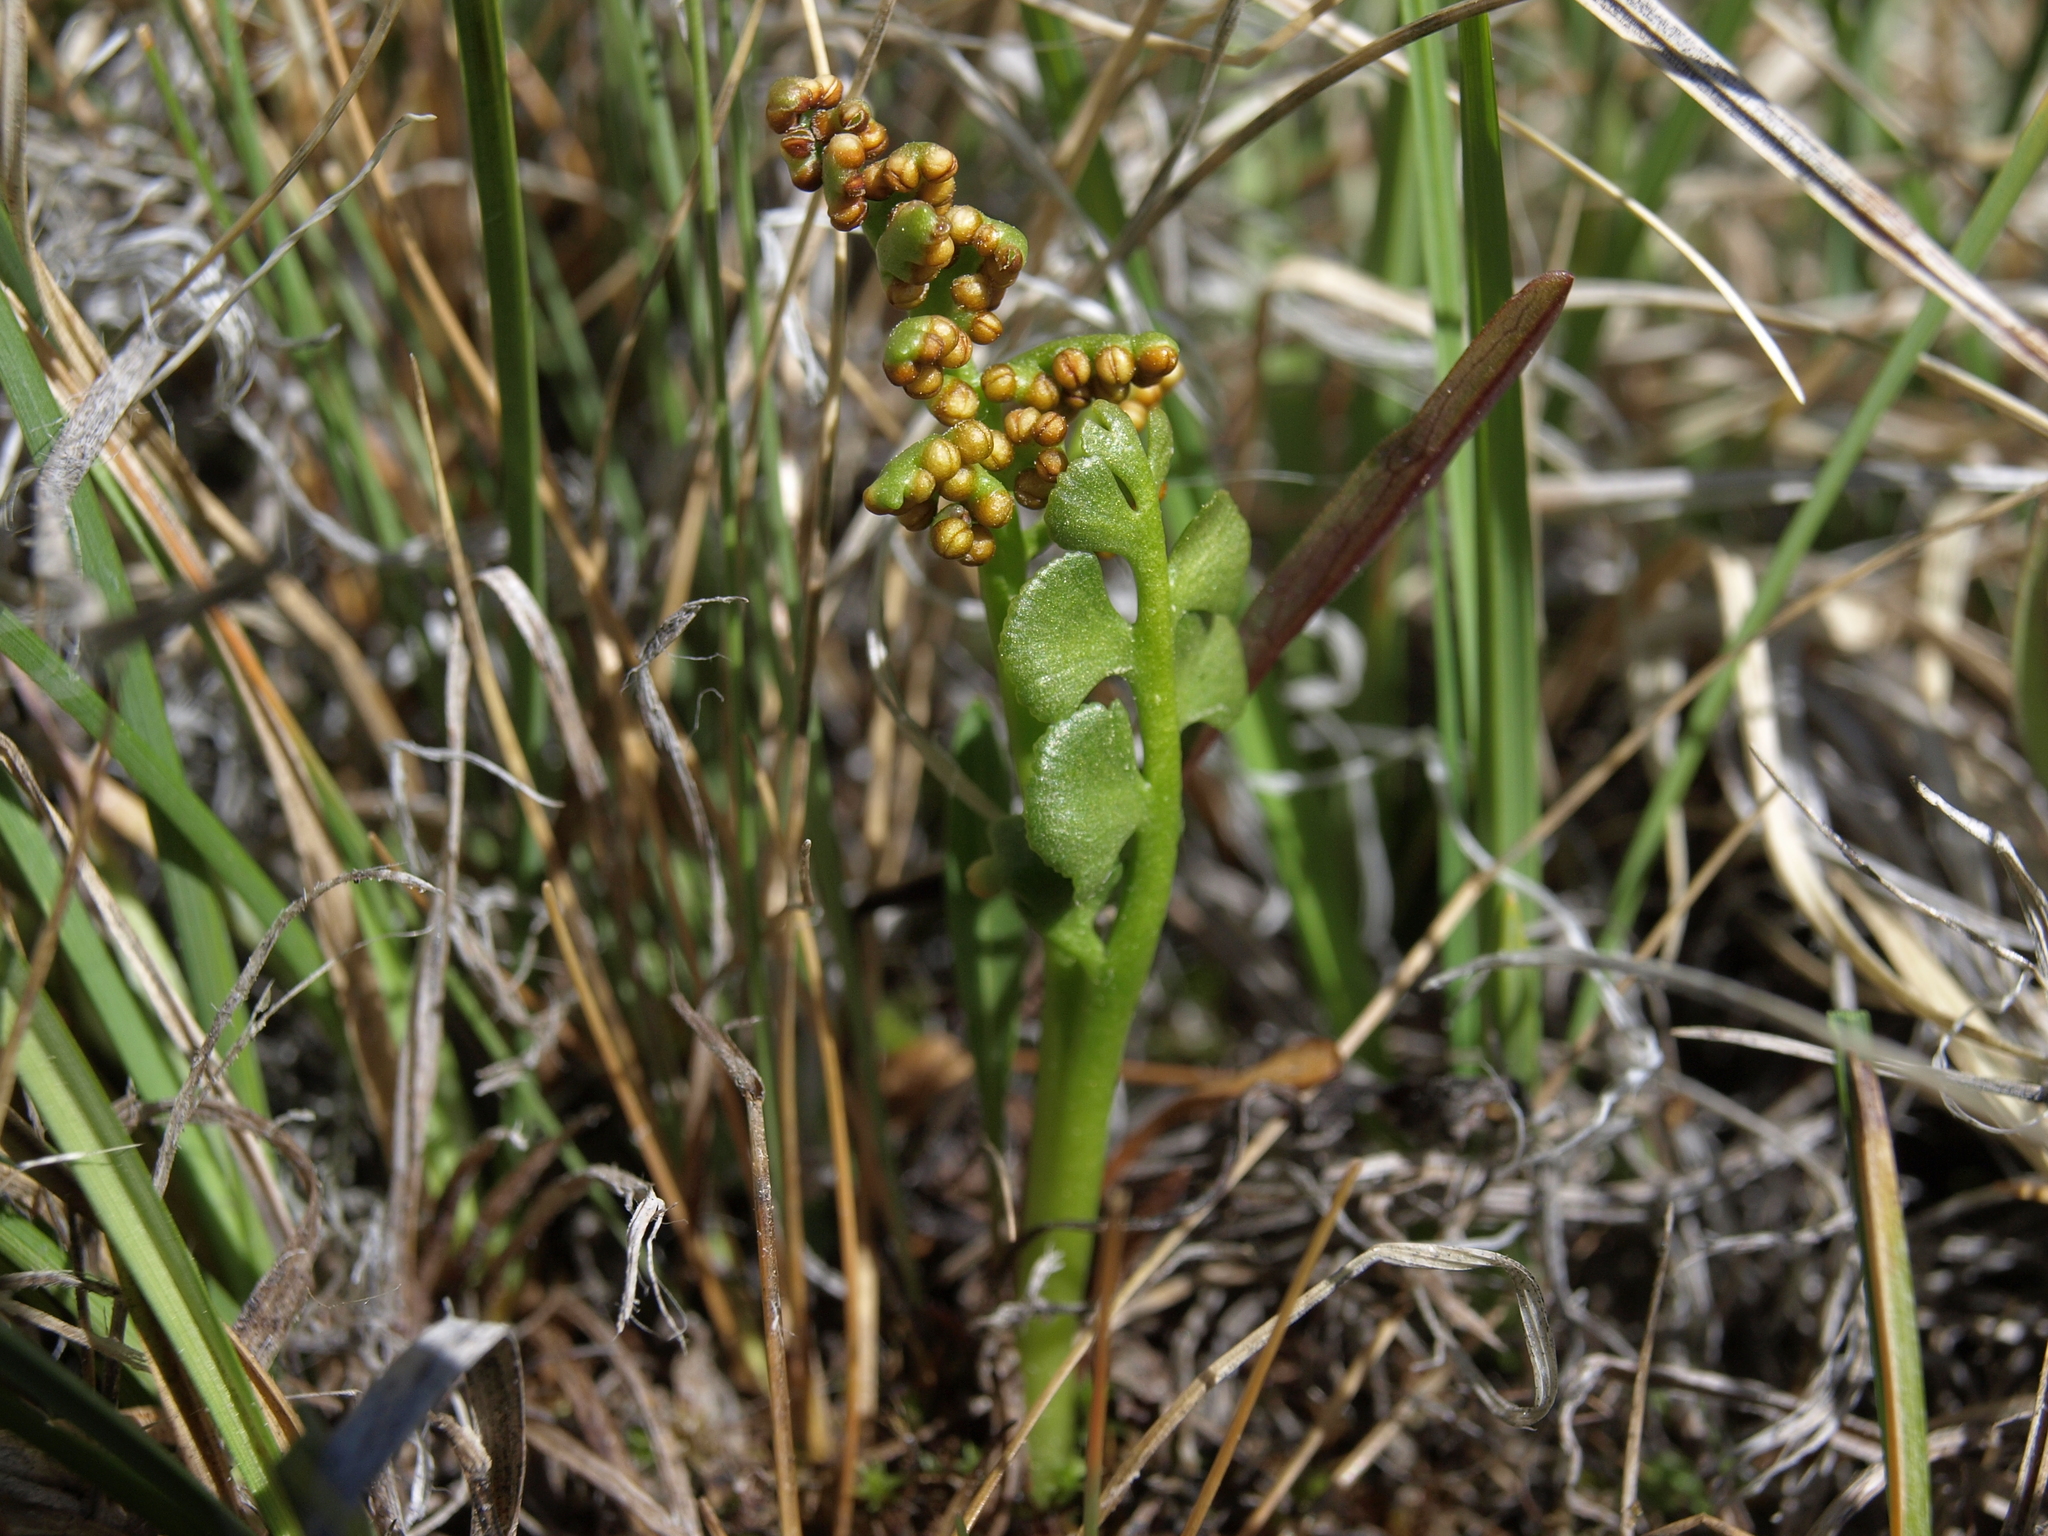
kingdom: Plantae
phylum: Tracheophyta
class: Polypodiopsida
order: Ophioglossales
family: Ophioglossaceae
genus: Botrychium
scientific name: Botrychium crenulatum
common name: Crenulate moonwort
